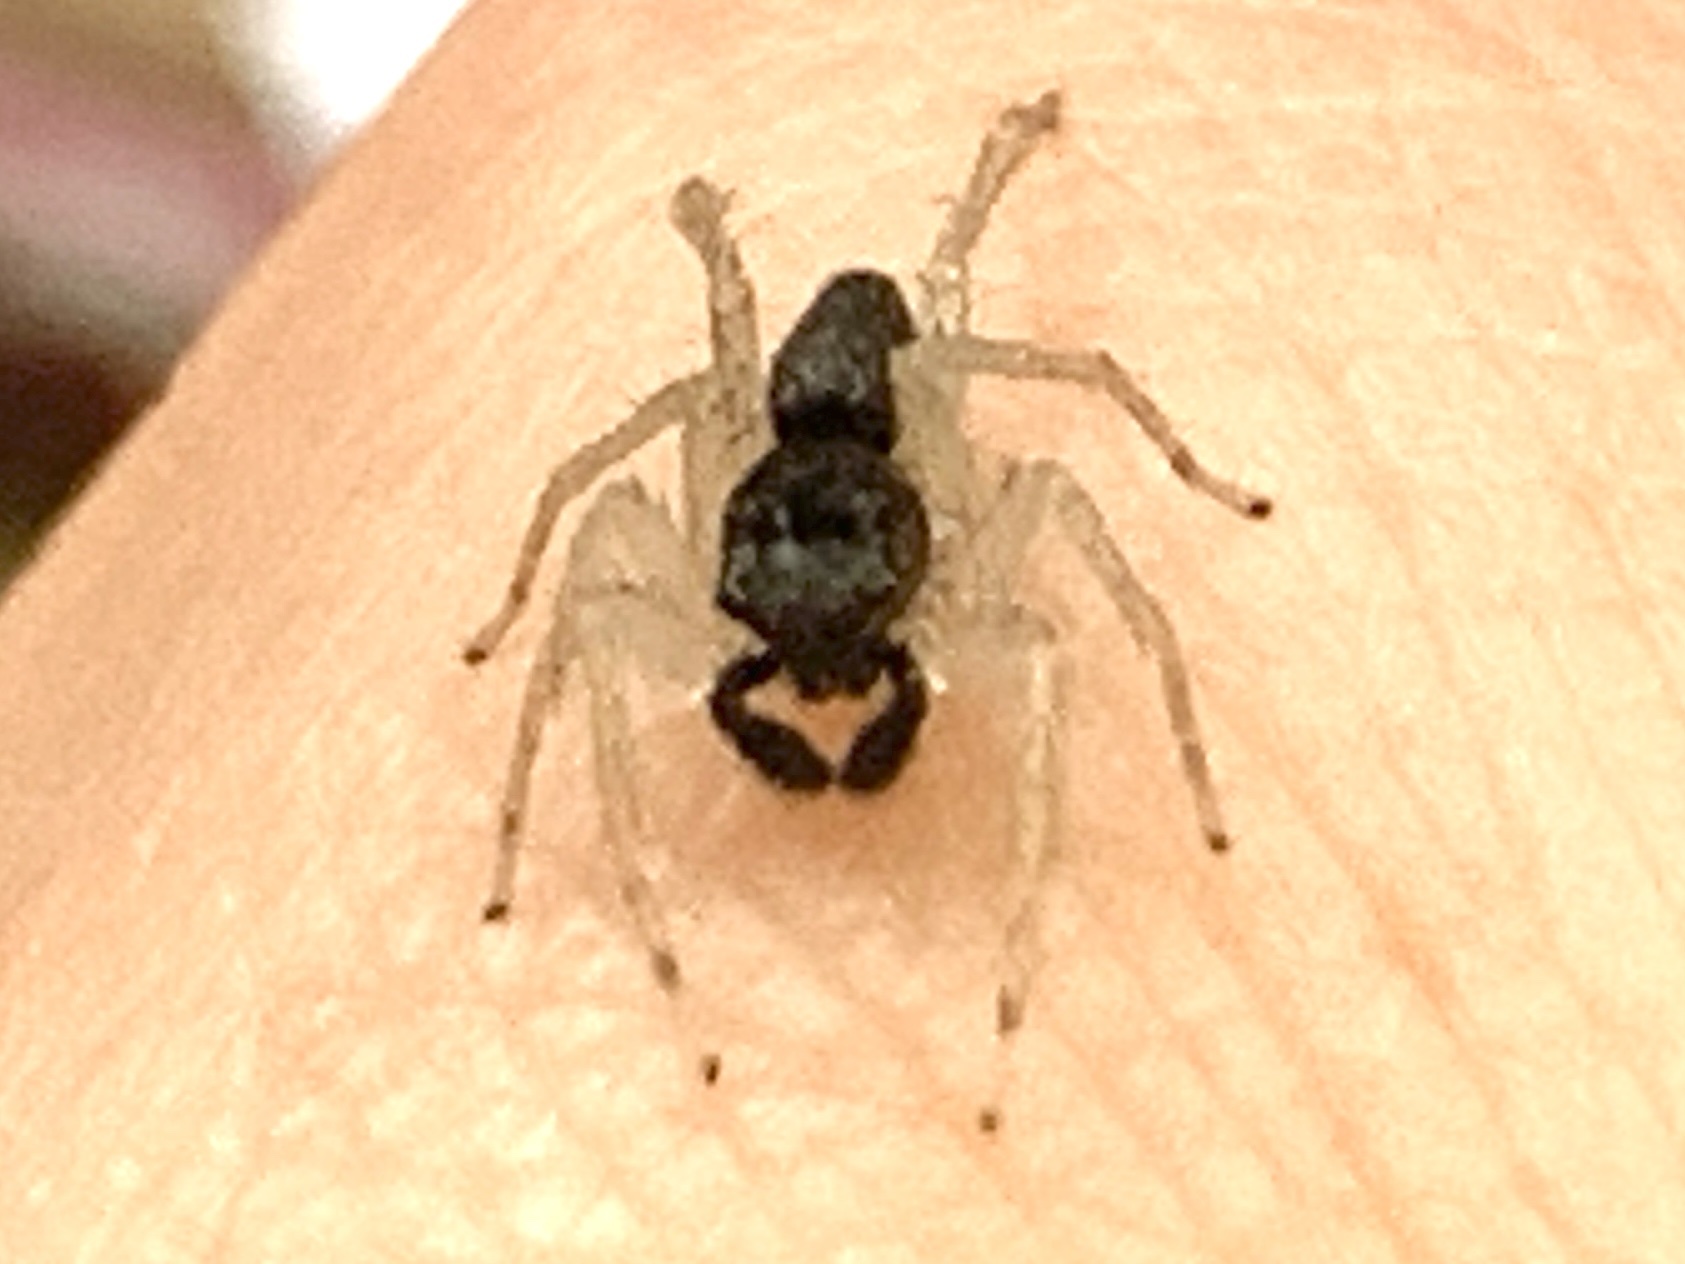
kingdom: Animalia
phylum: Arthropoda
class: Arachnida
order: Araneae
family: Salticidae
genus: Maevia
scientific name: Maevia inclemens
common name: Dimorphic jumper
